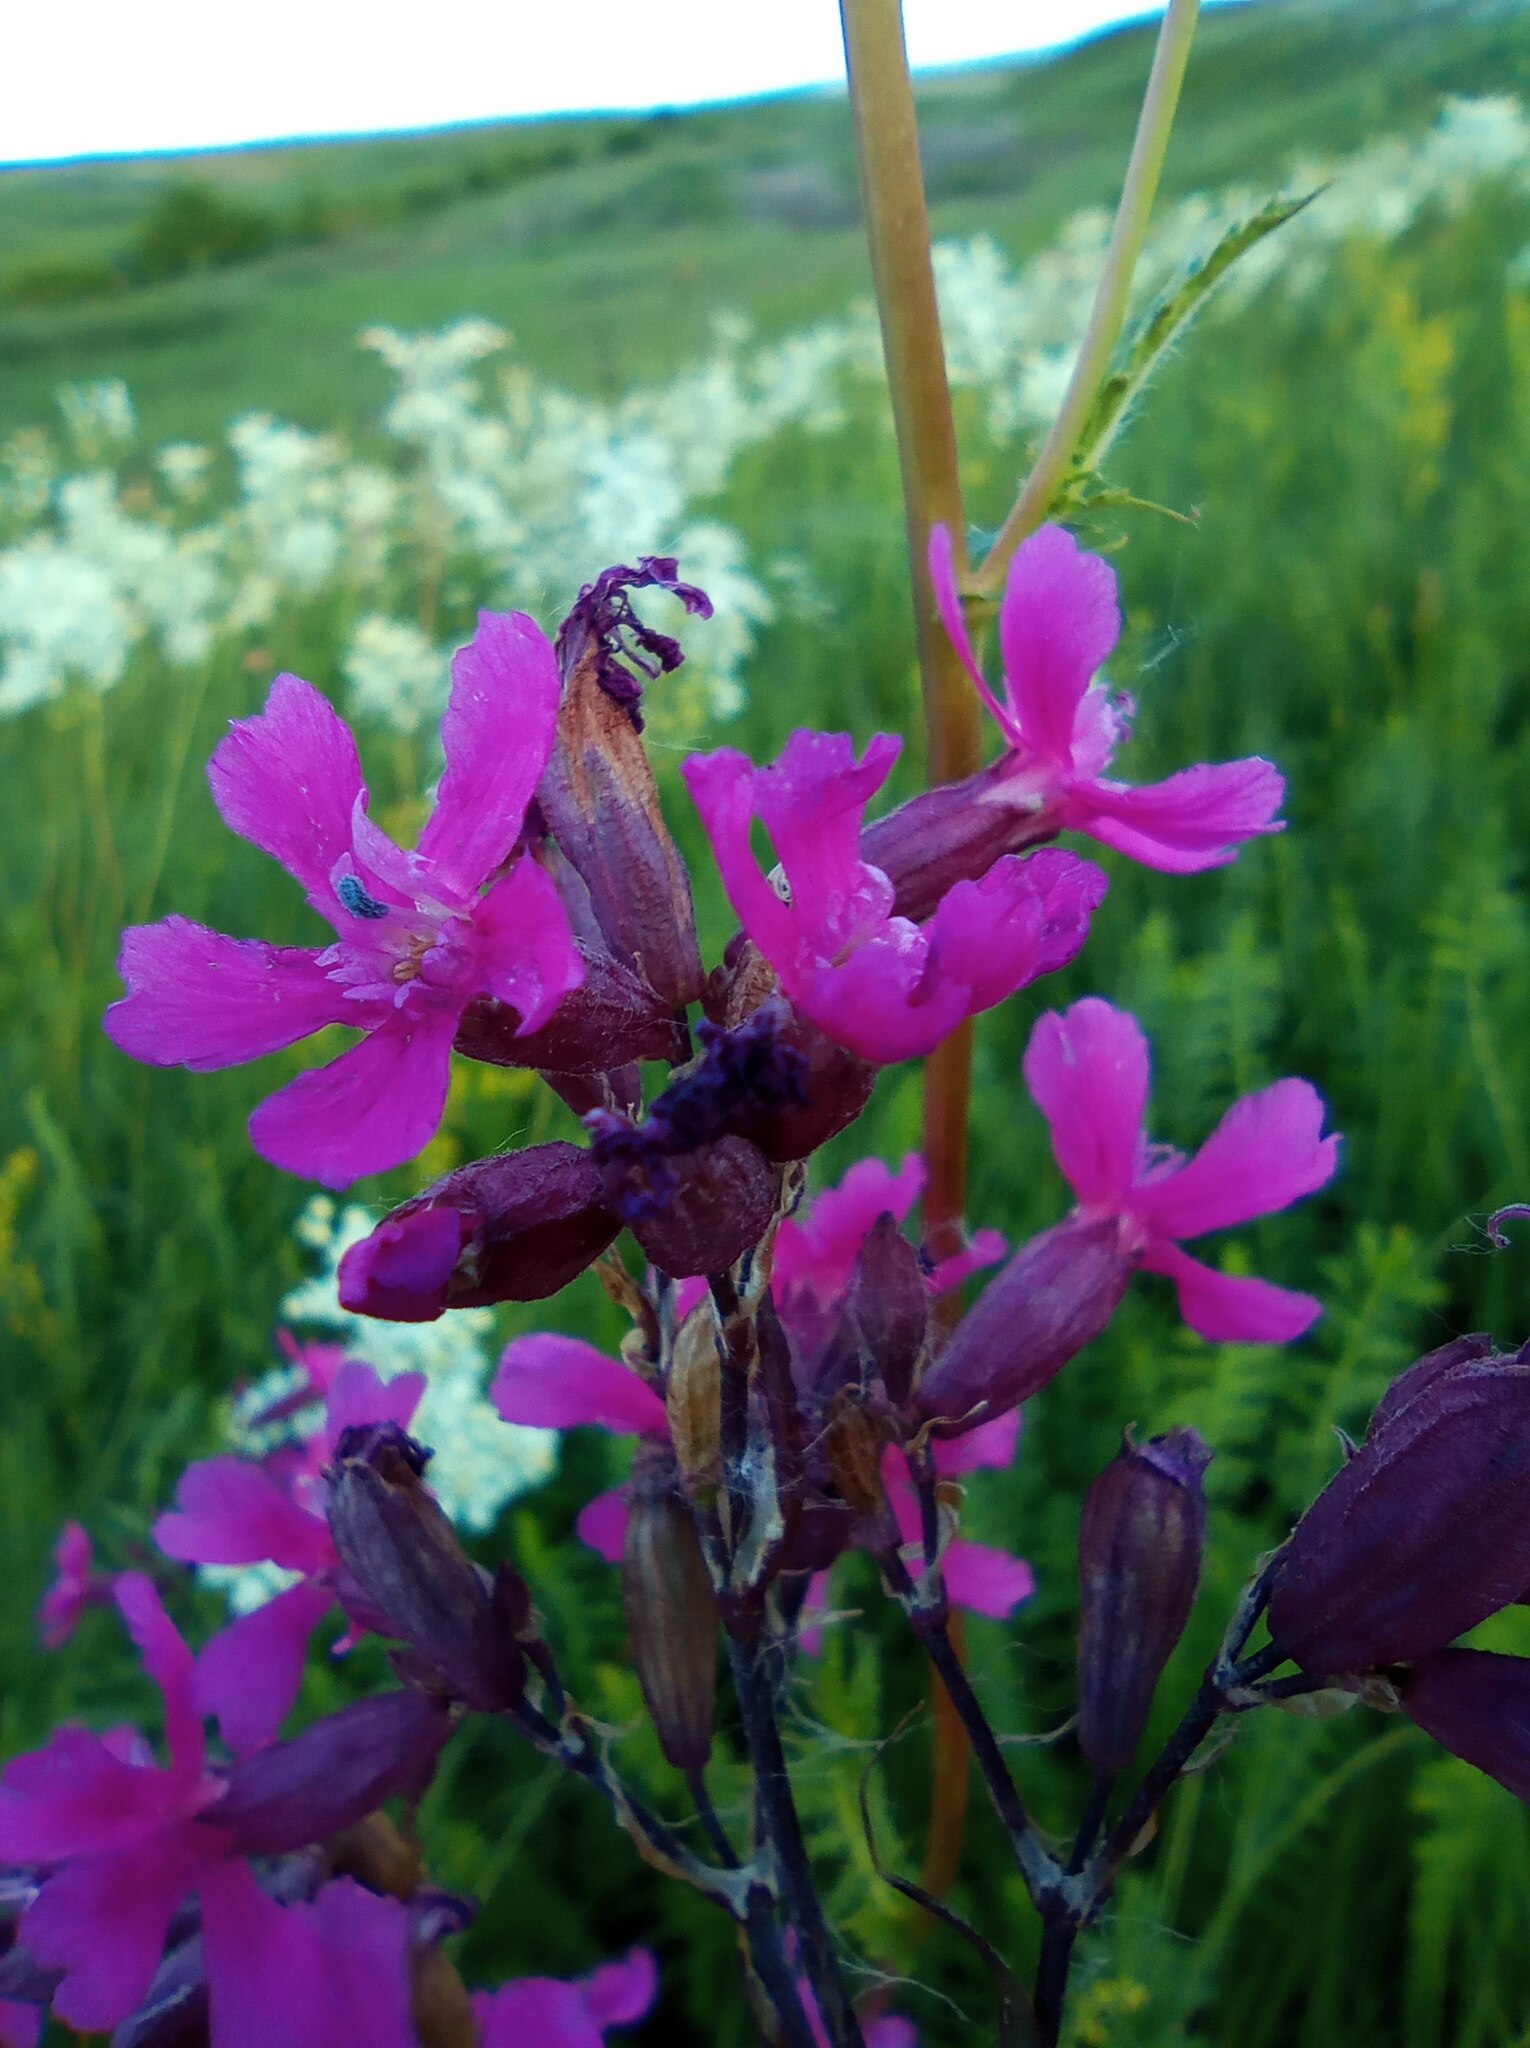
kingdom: Plantae
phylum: Tracheophyta
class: Magnoliopsida
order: Caryophyllales
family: Caryophyllaceae
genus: Viscaria
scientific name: Viscaria vulgaris
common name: Clammy campion
